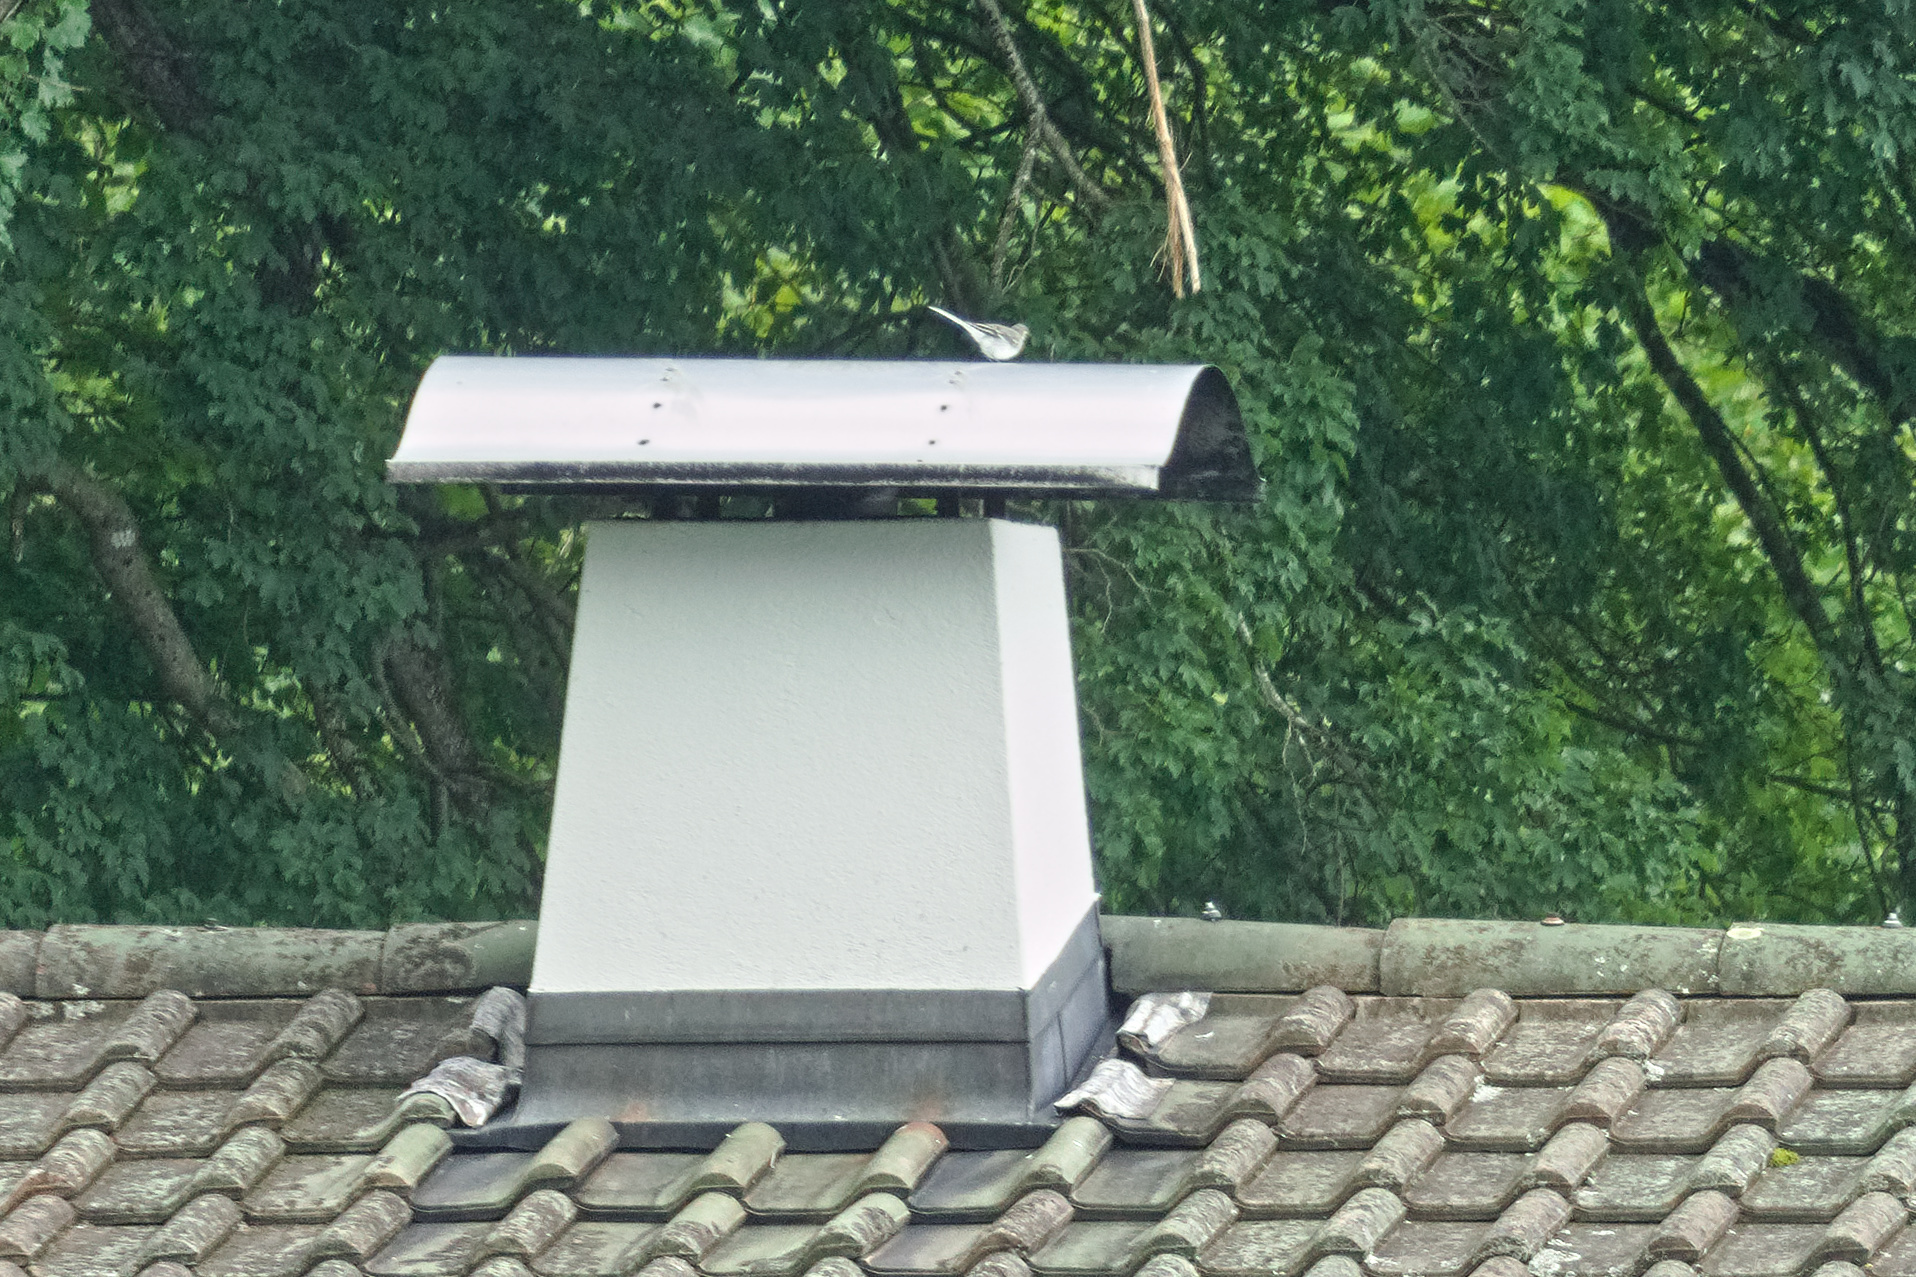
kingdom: Animalia
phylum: Chordata
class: Aves
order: Passeriformes
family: Motacillidae
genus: Motacilla
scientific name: Motacilla alba
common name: White wagtail
